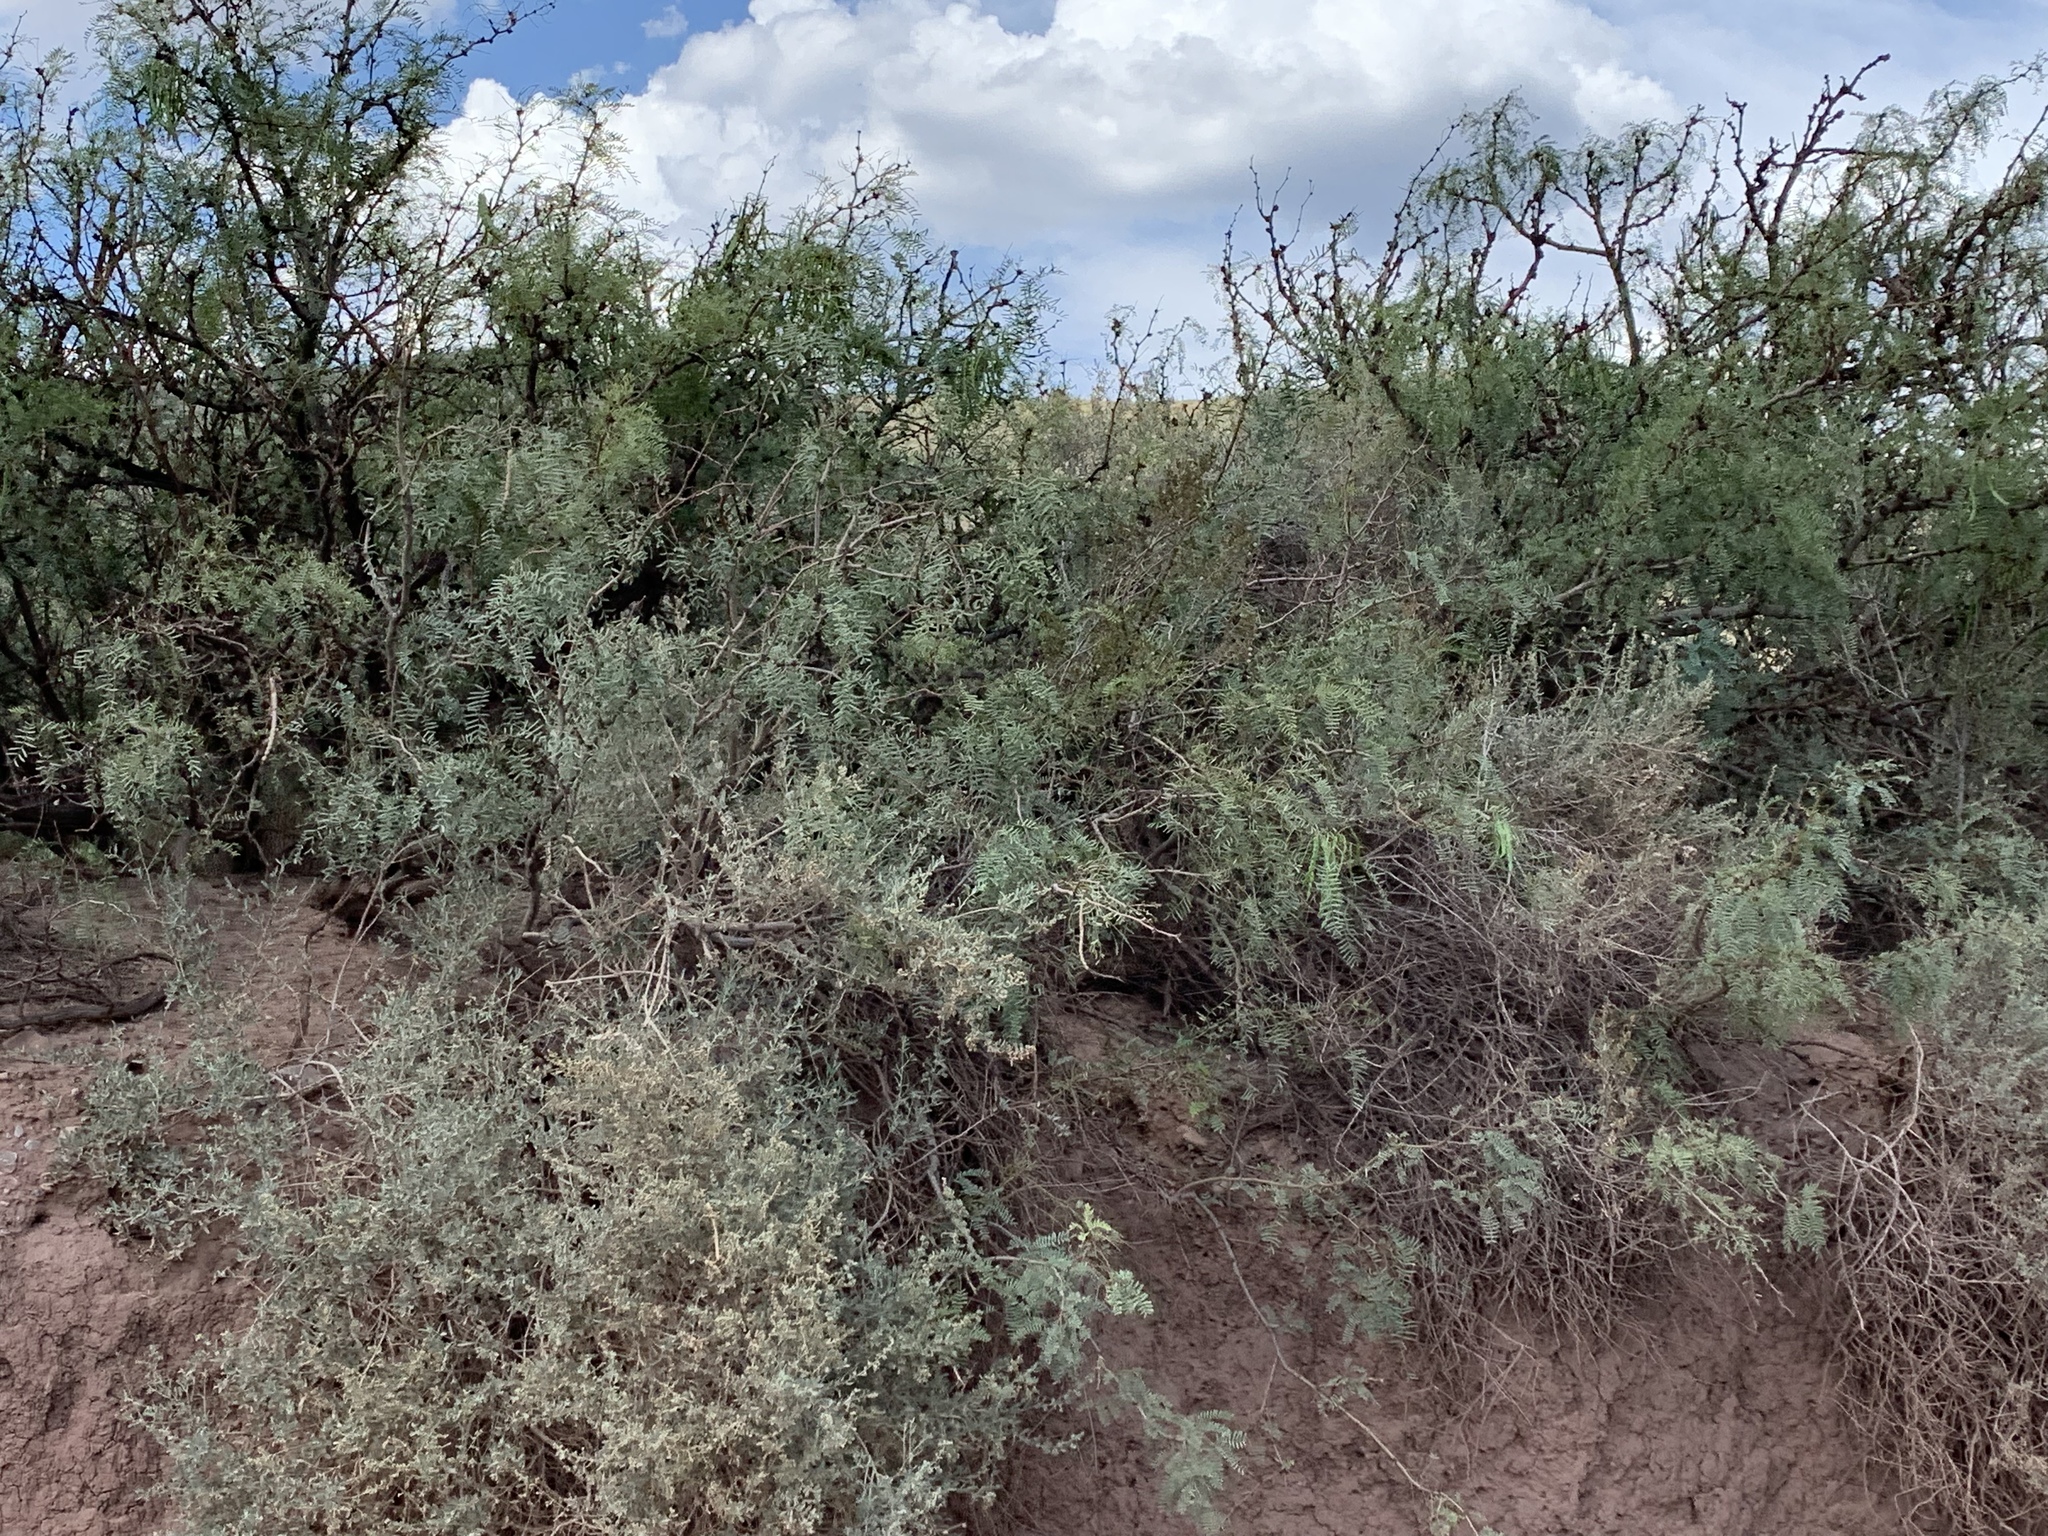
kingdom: Plantae
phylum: Tracheophyta
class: Magnoliopsida
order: Fabales
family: Fabaceae
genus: Prosopis
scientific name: Prosopis glandulosa
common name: Honey mesquite
